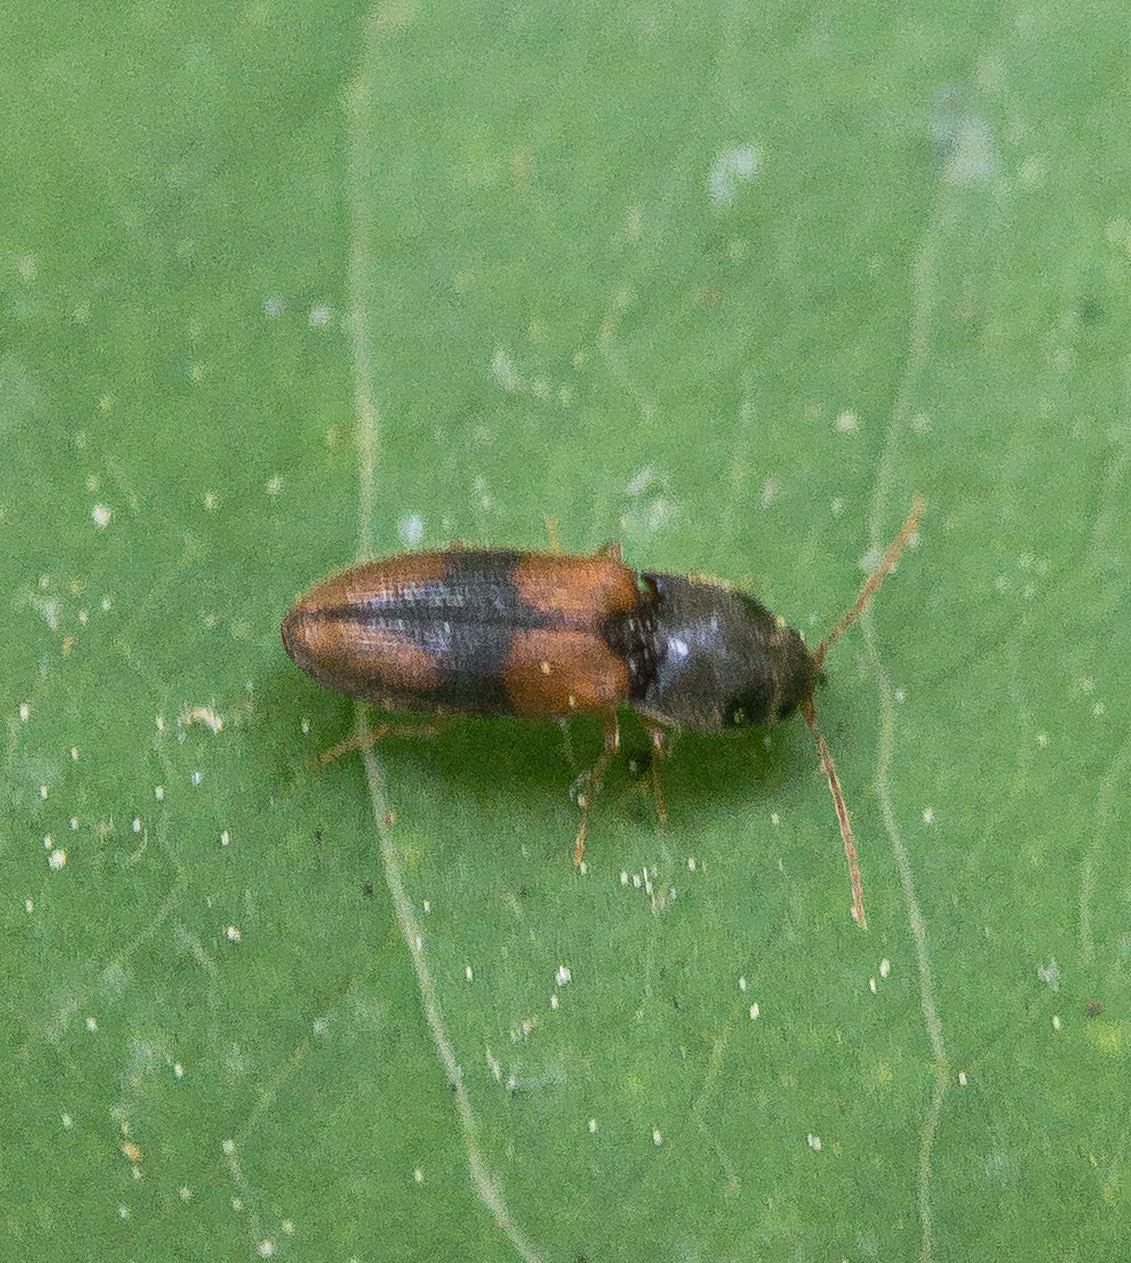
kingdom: Animalia
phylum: Arthropoda
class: Insecta
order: Coleoptera
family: Elateridae
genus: Horistonotus
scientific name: Horistonotus curiatus
